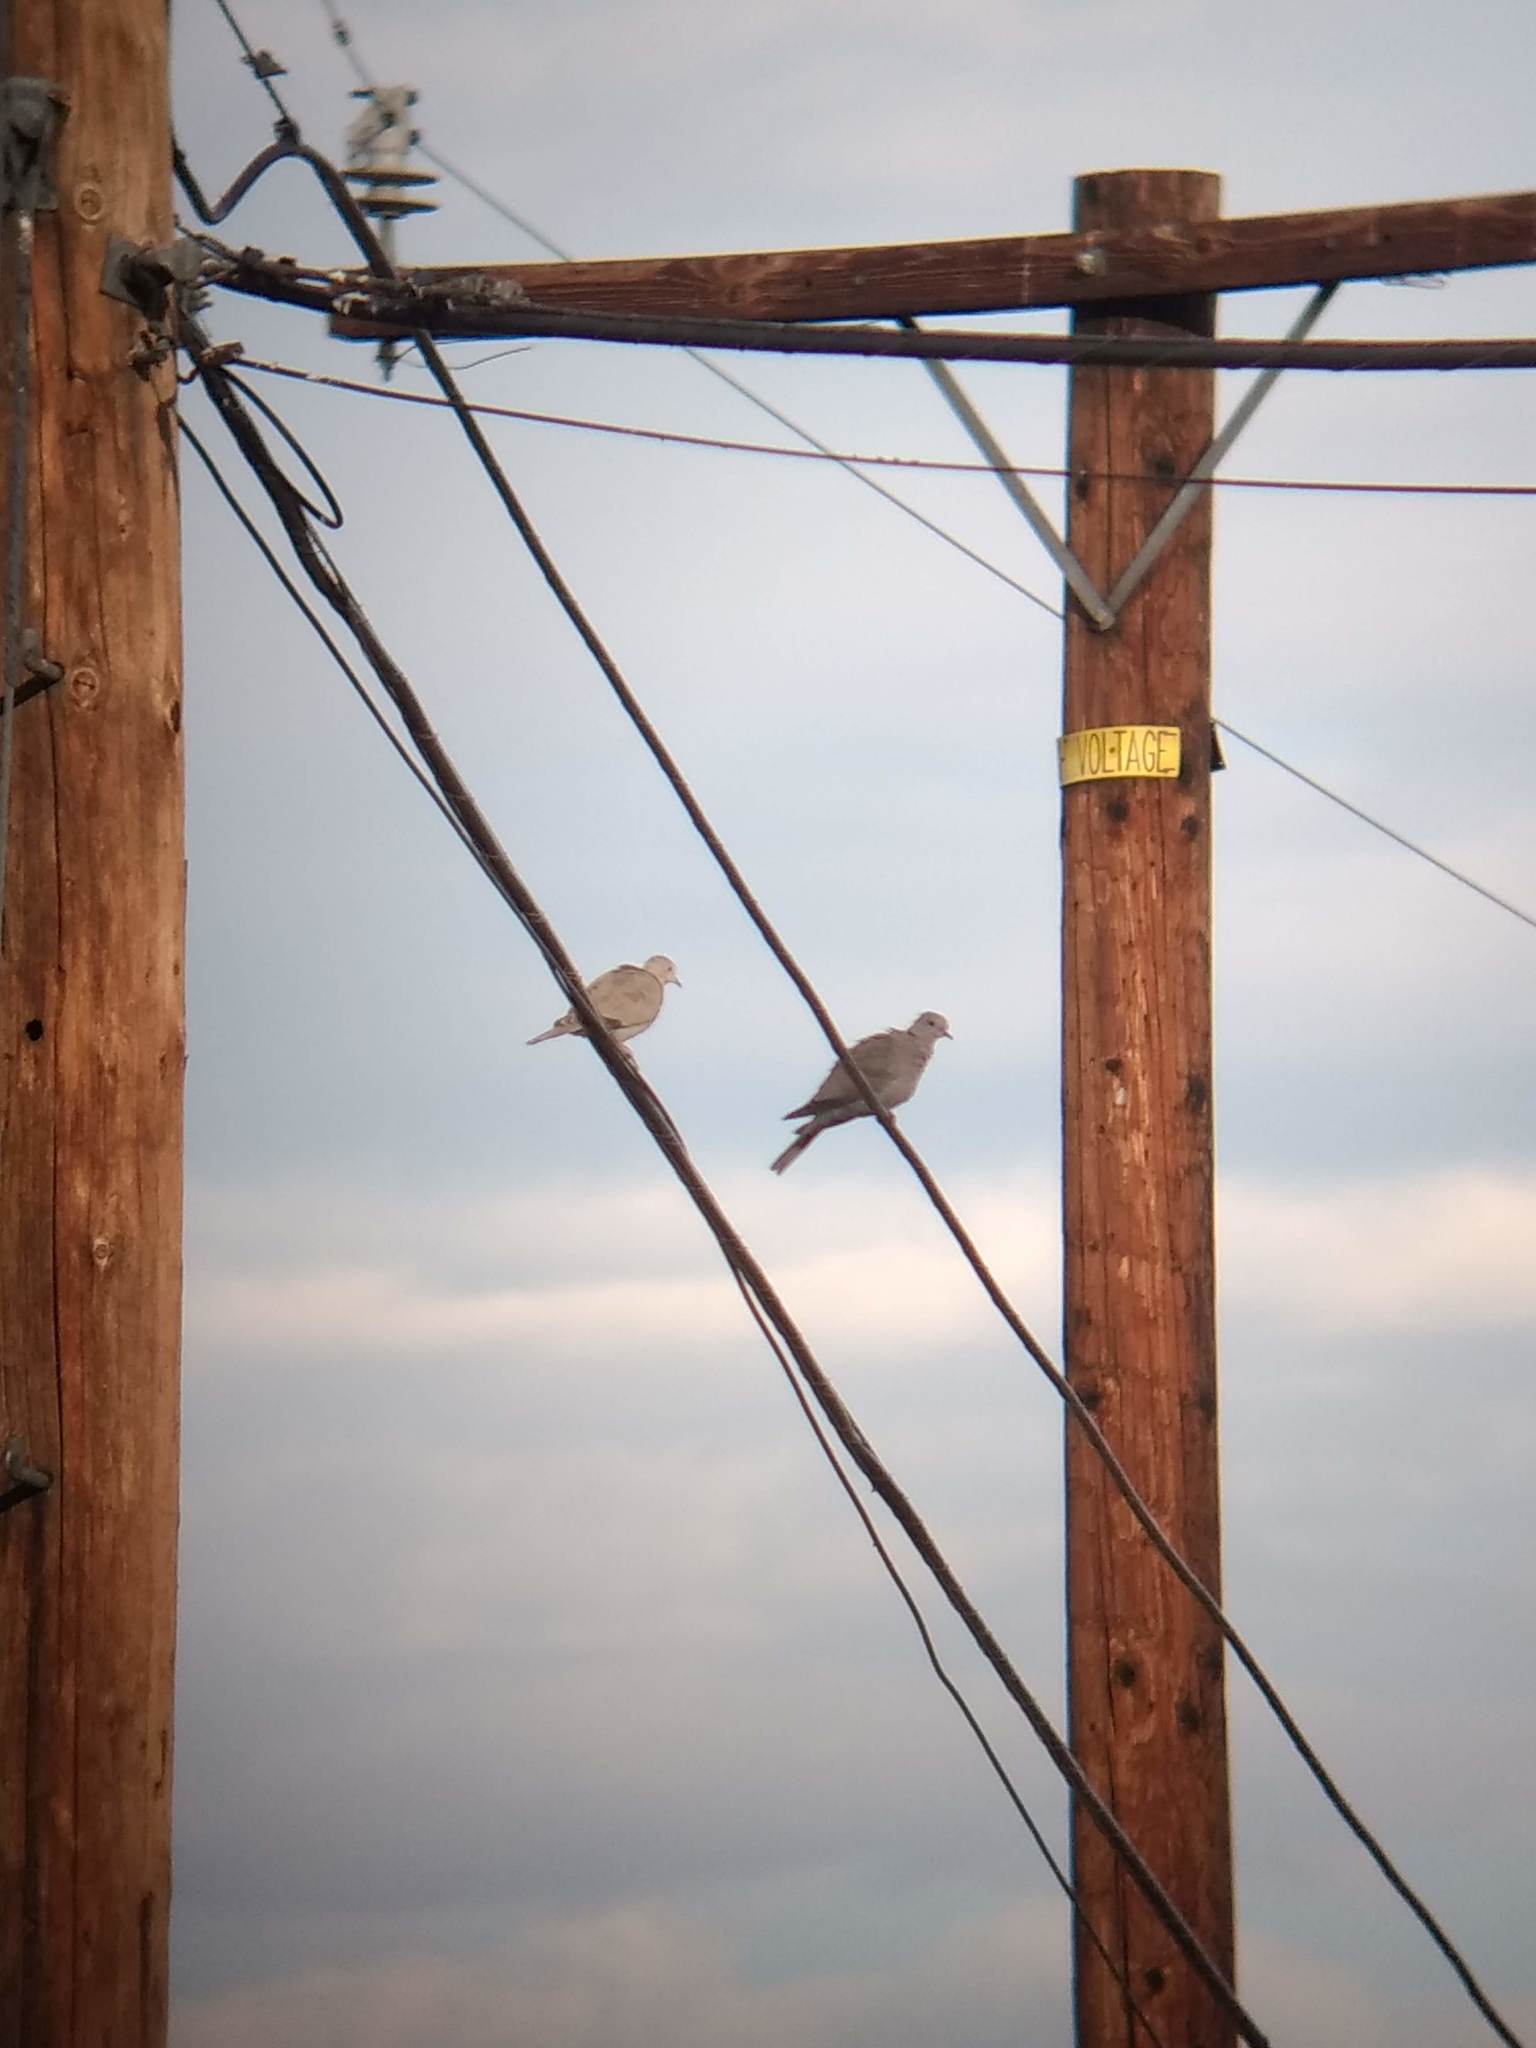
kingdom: Animalia
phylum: Chordata
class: Aves
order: Columbiformes
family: Columbidae
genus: Streptopelia
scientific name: Streptopelia decaocto
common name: Eurasian collared dove
